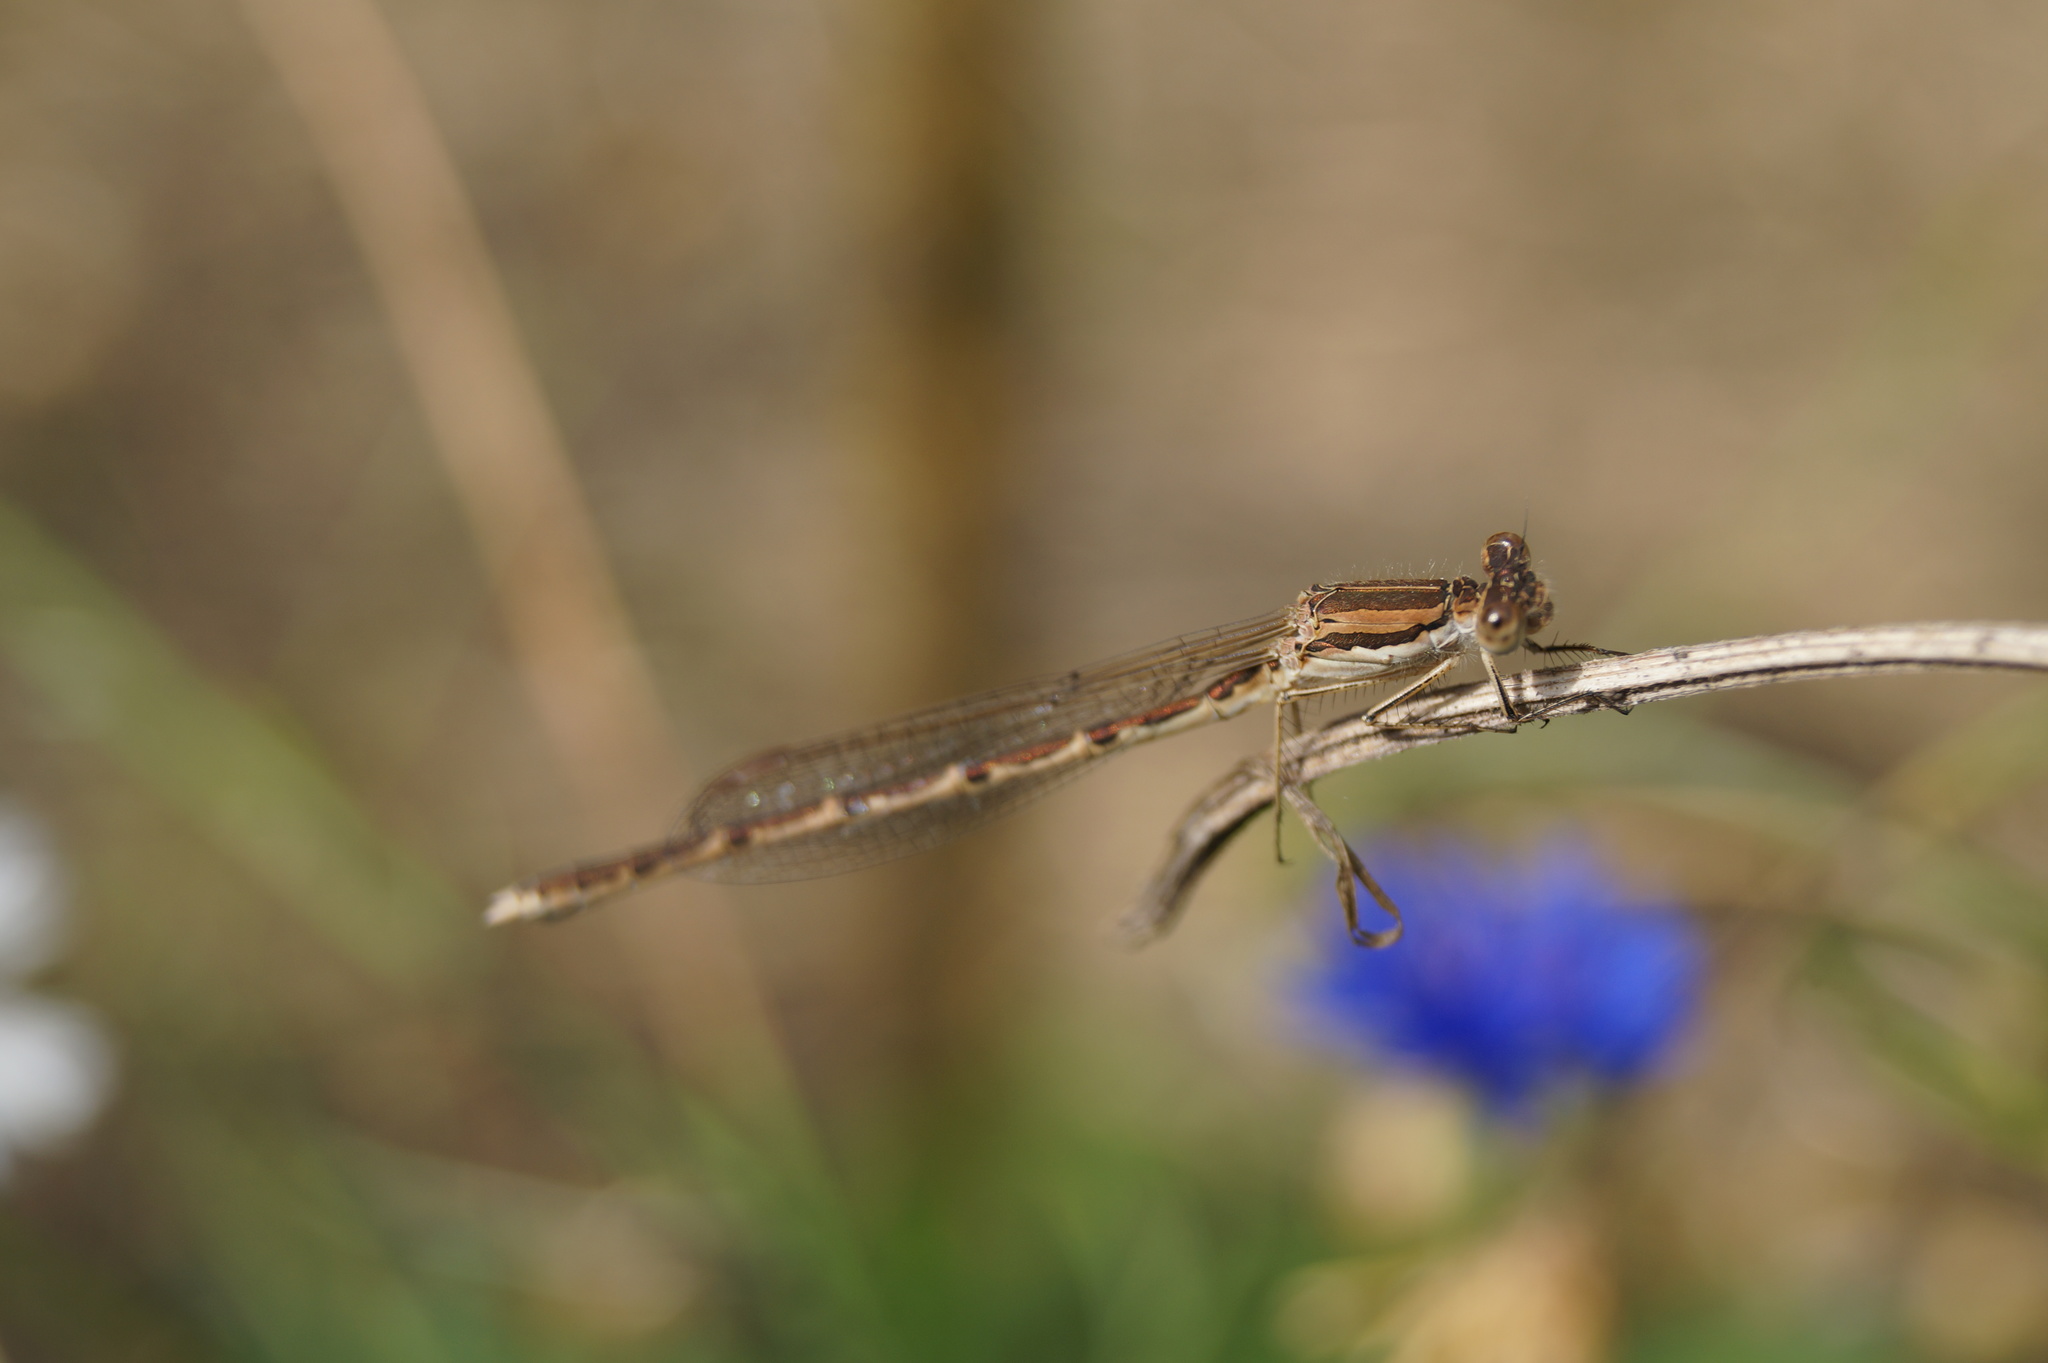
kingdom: Animalia
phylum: Arthropoda
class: Insecta
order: Odonata
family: Lestidae
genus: Sympecma
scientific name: Sympecma fusca
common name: Common winter damsel
